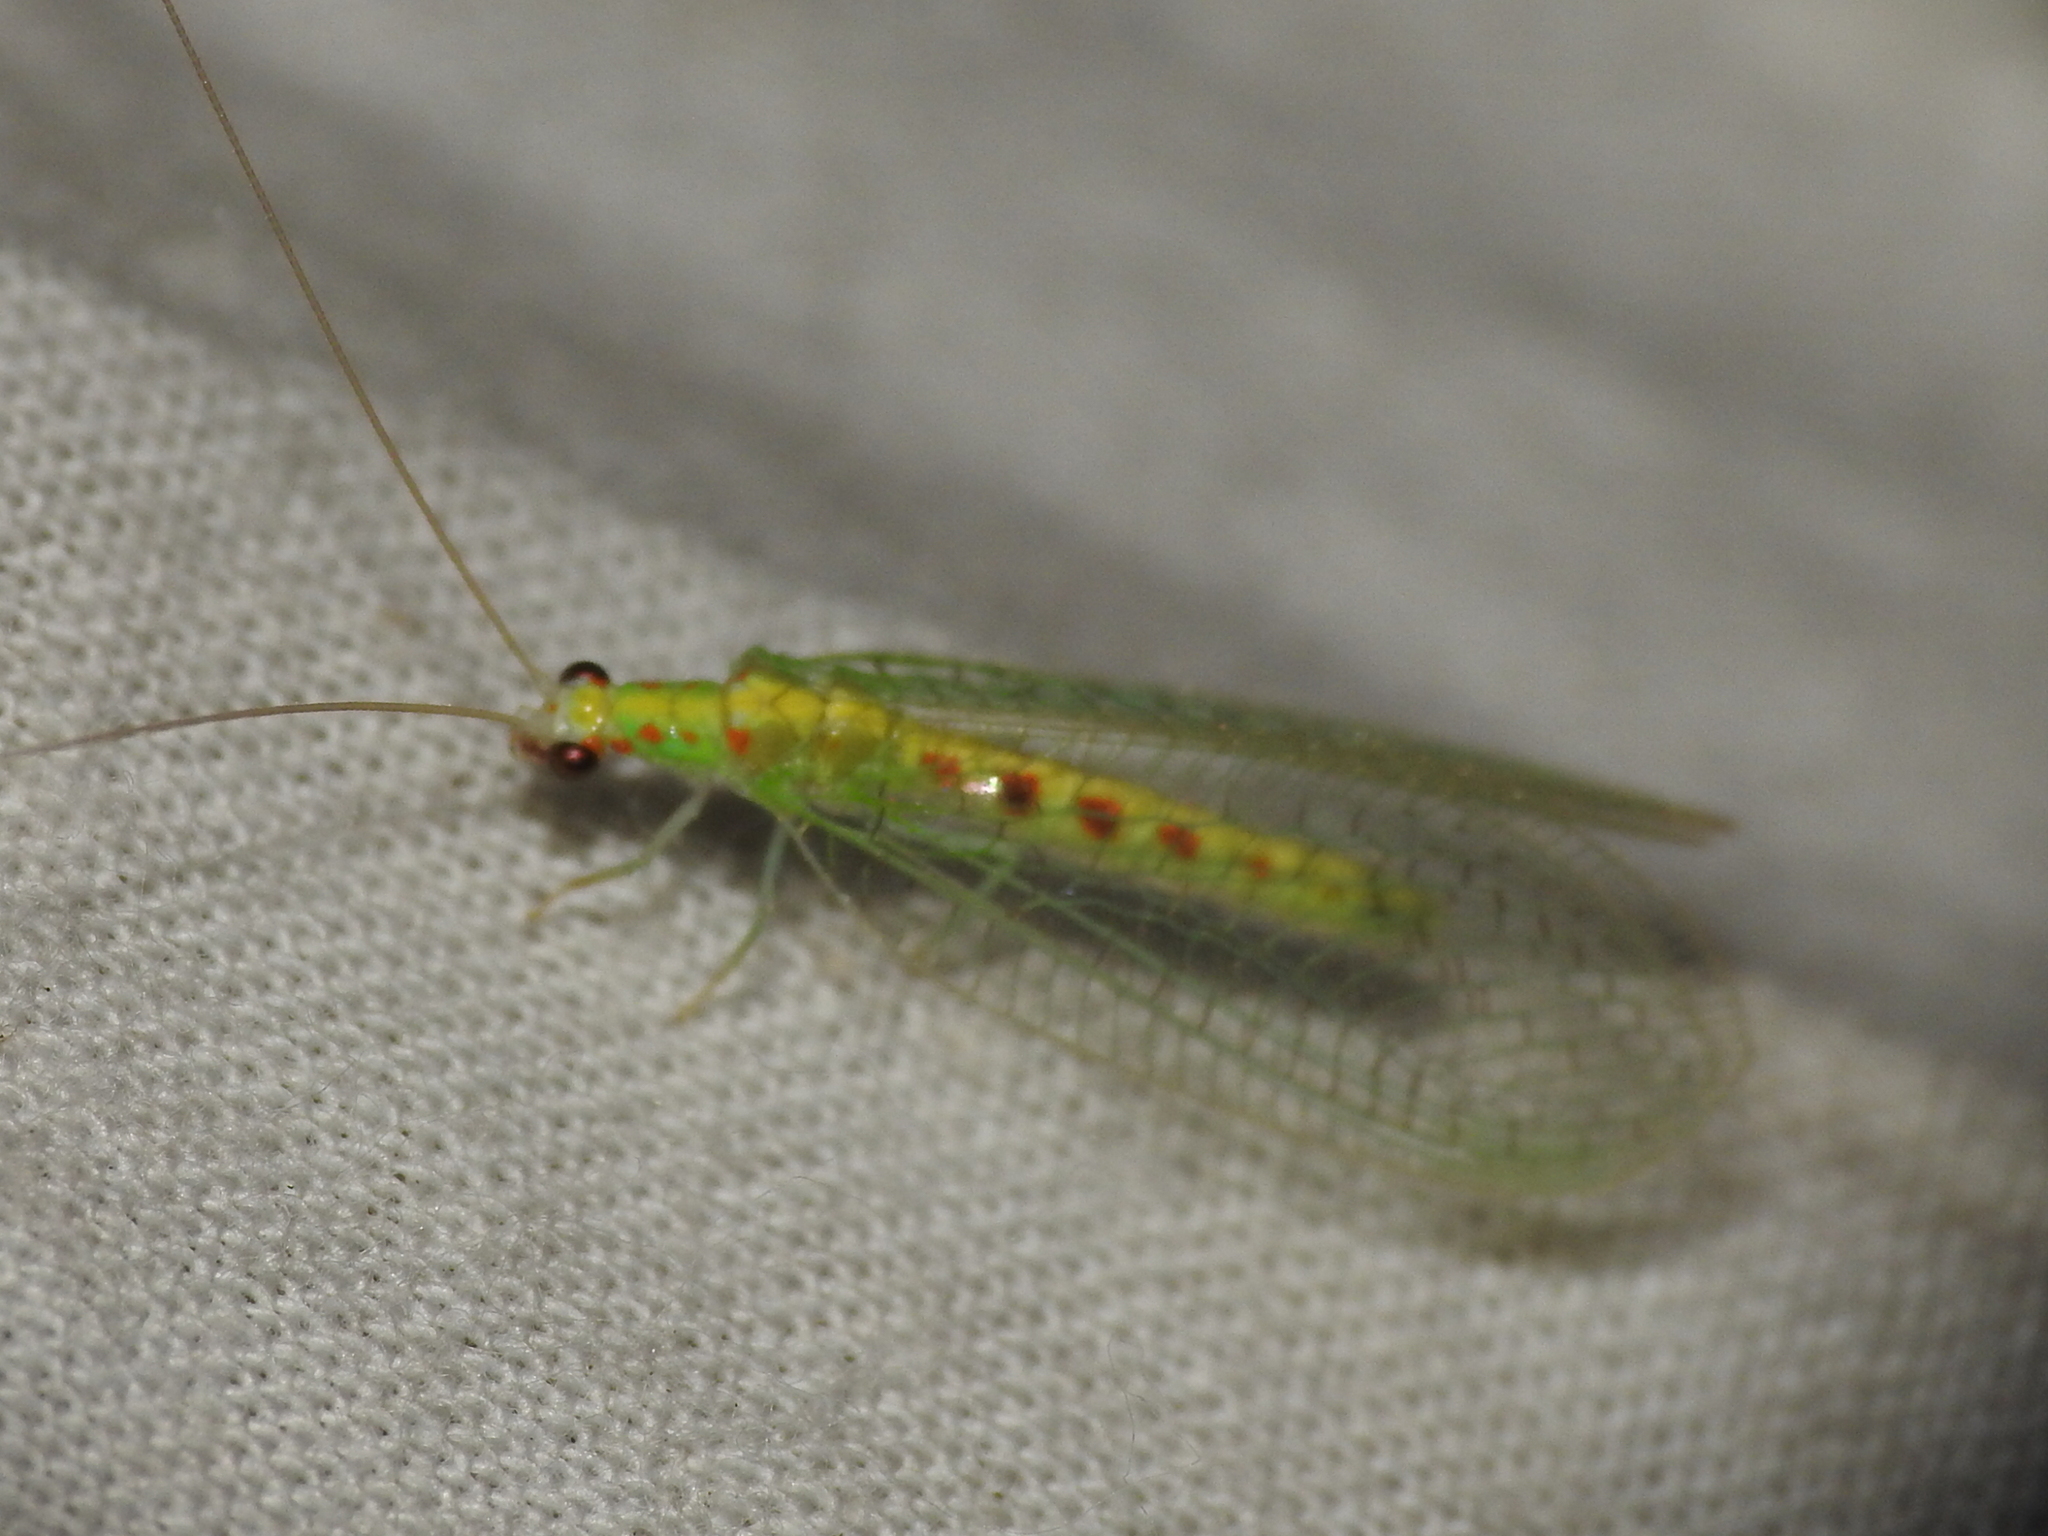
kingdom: Animalia
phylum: Arthropoda
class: Insecta
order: Neuroptera
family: Chrysopidae
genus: Chrysopa
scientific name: Chrysopa quadripunctata
